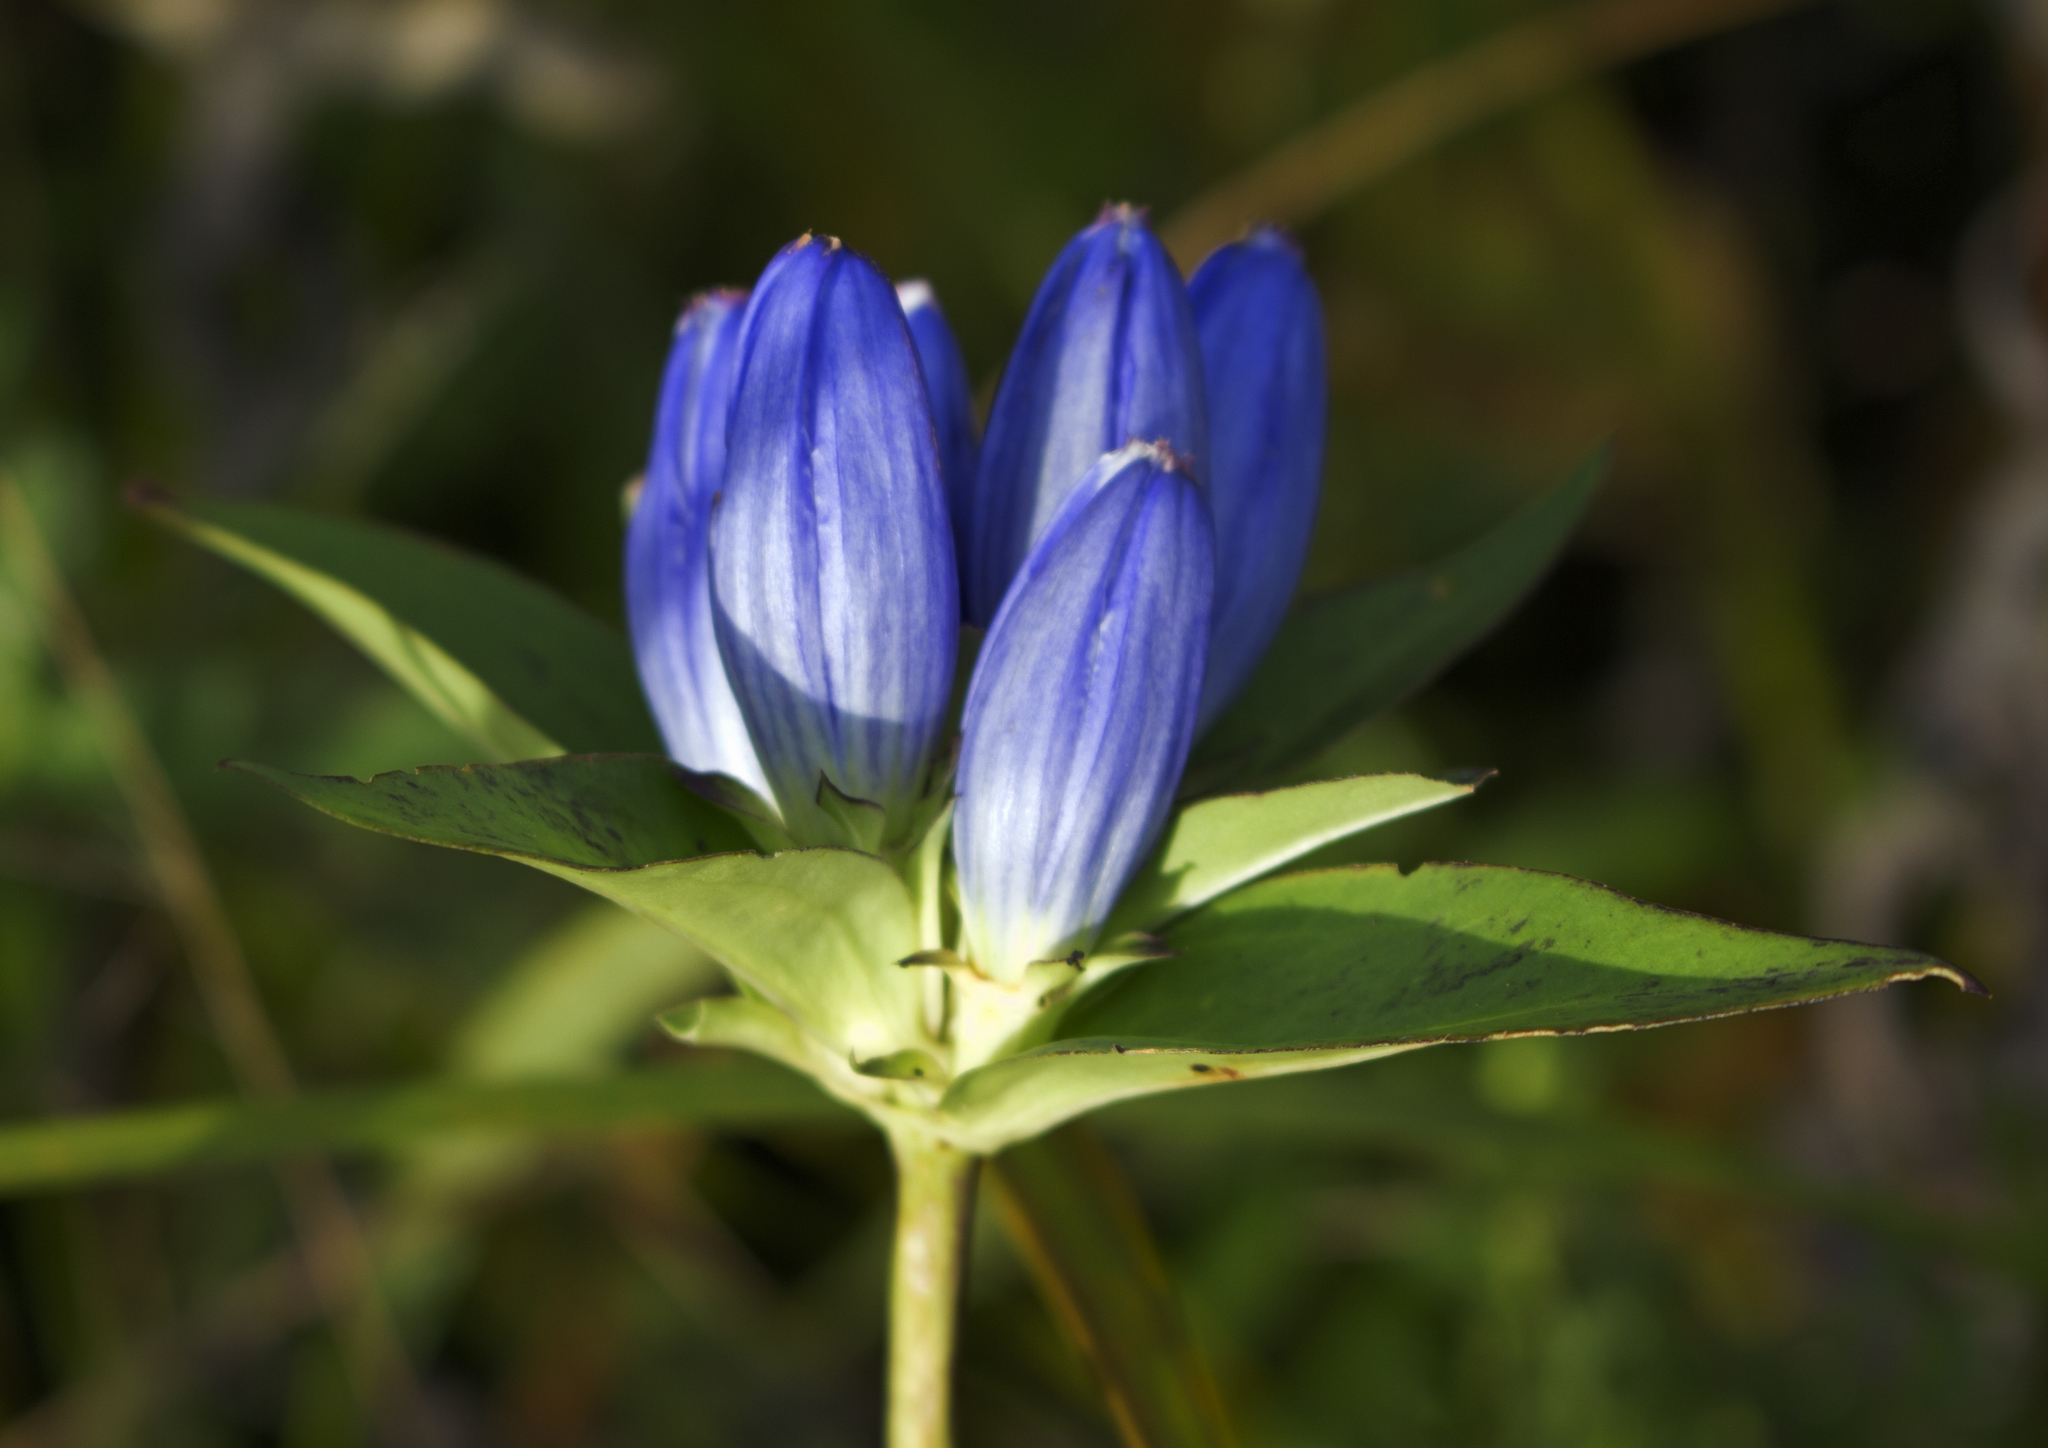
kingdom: Plantae
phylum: Tracheophyta
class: Magnoliopsida
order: Gentianales
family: Gentianaceae
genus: Gentiana
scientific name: Gentiana andrewsii
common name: Bottle gentian
